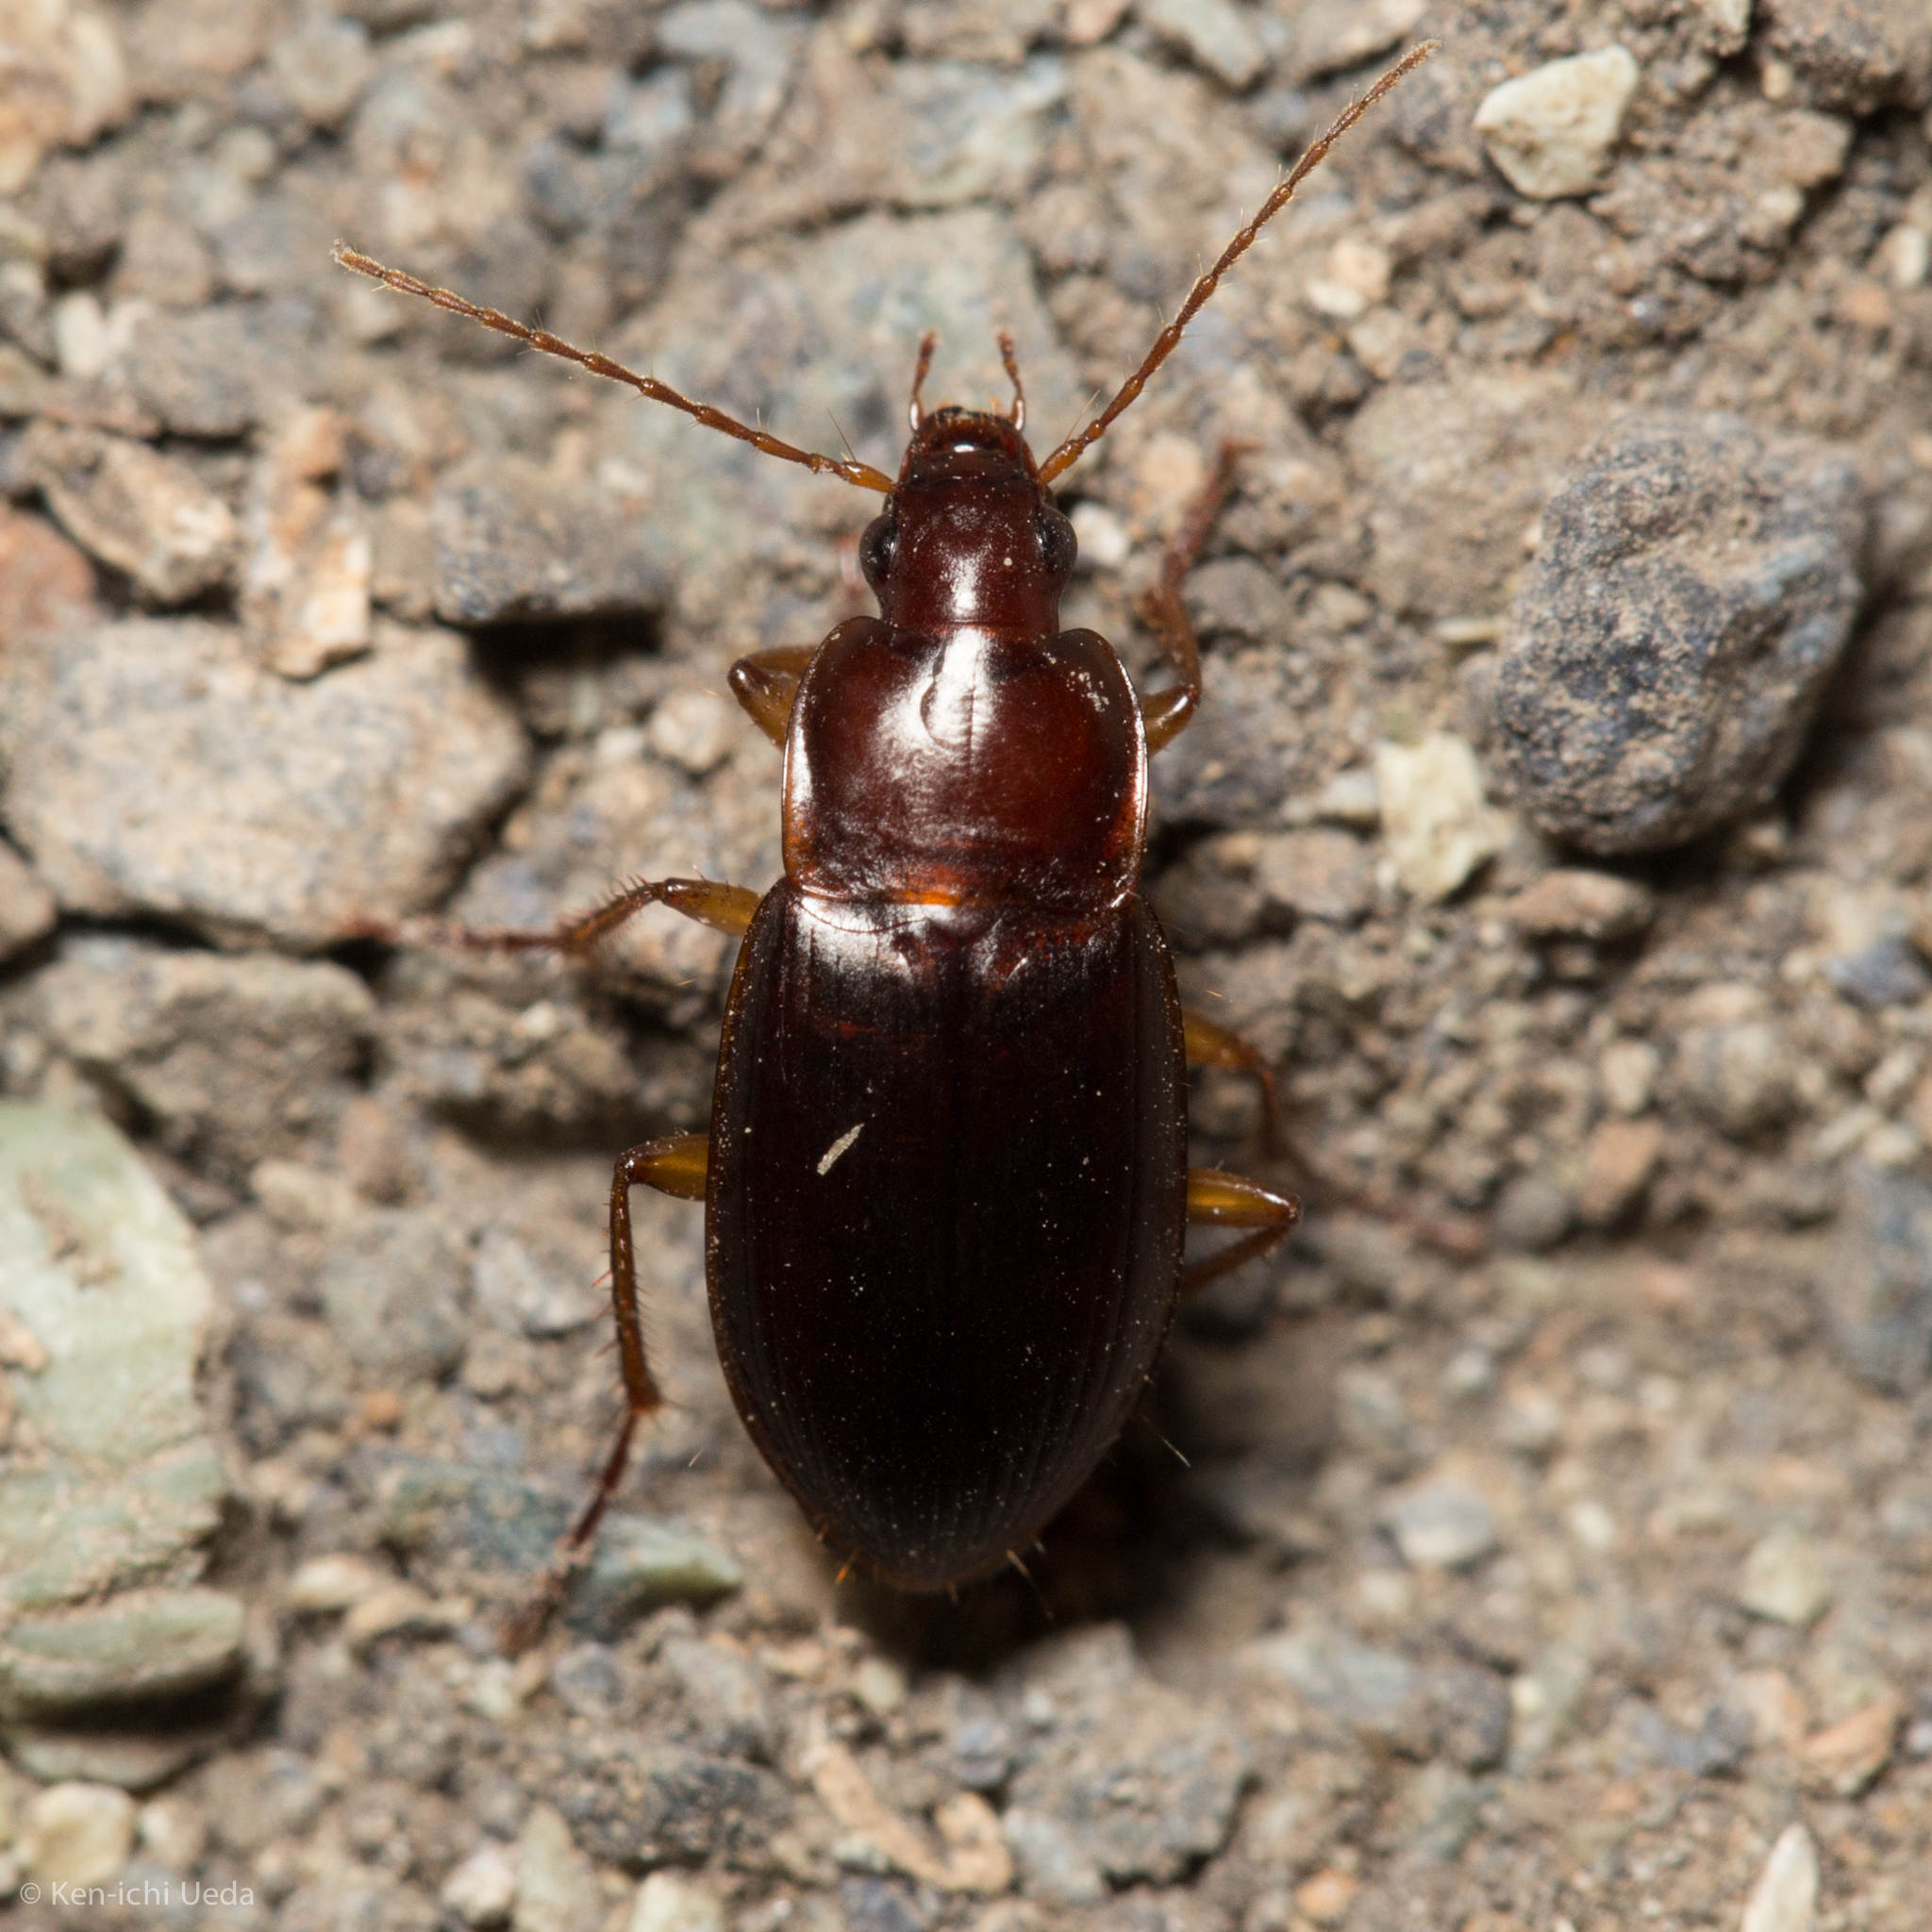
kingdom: Animalia
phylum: Arthropoda
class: Insecta
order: Coleoptera
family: Carabidae
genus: Calathus
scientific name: Calathus ruficollis
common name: Red-collared harp ground beetle
